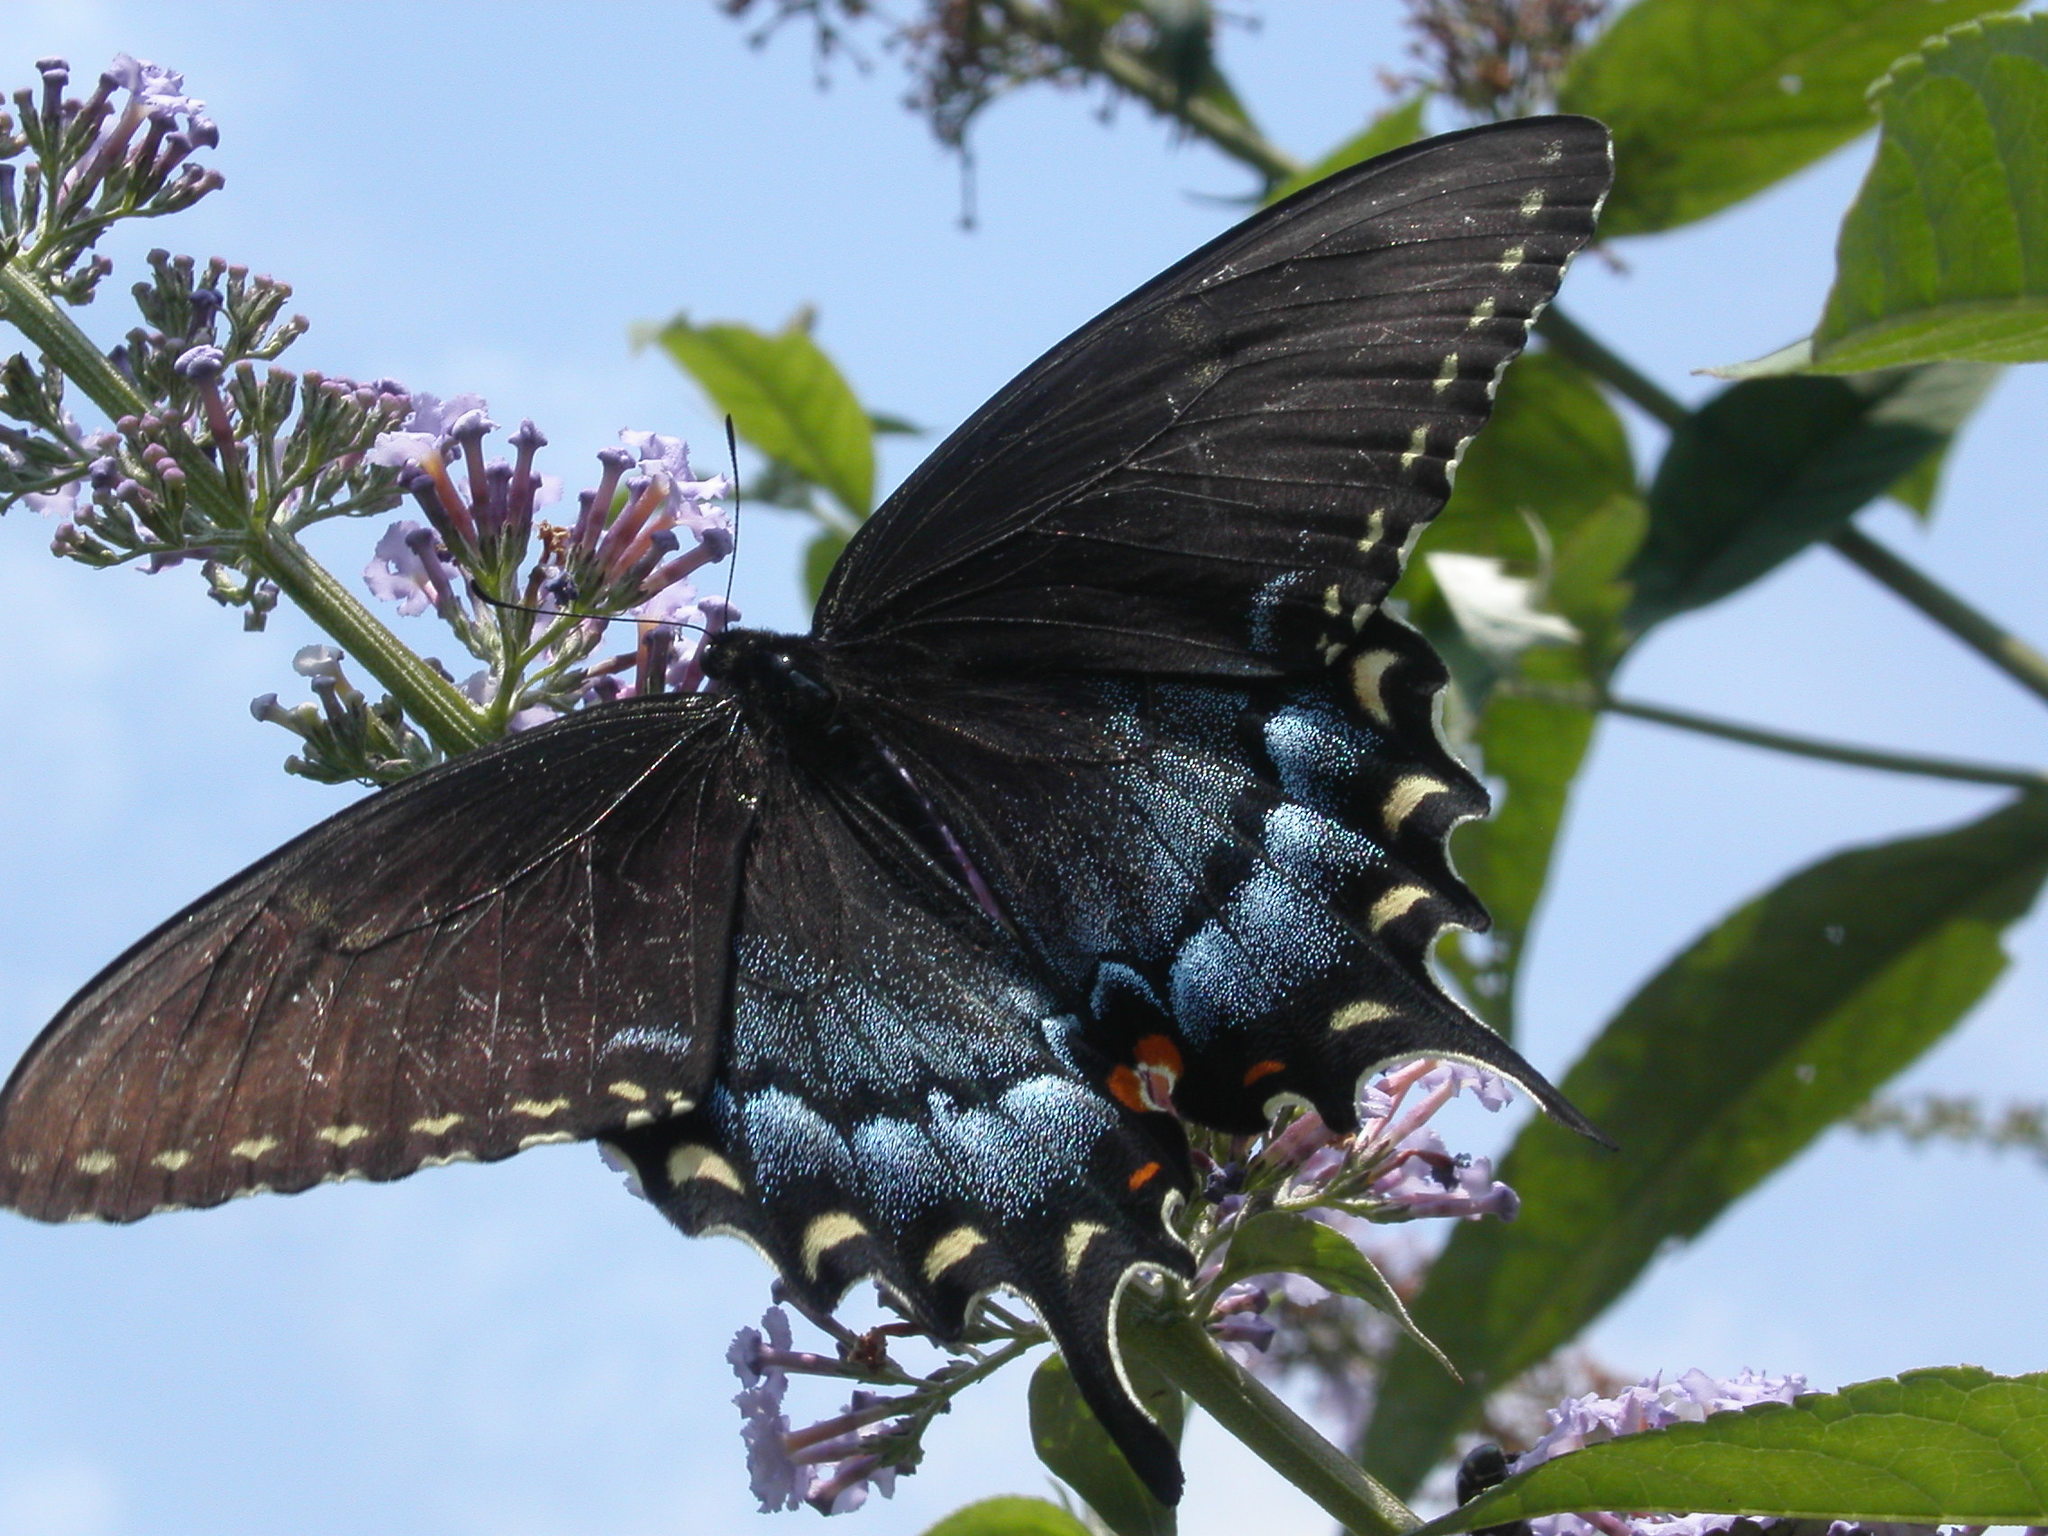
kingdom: Animalia
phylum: Arthropoda
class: Insecta
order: Lepidoptera
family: Papilionidae
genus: Papilio
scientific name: Papilio glaucus
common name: Tiger swallowtail
